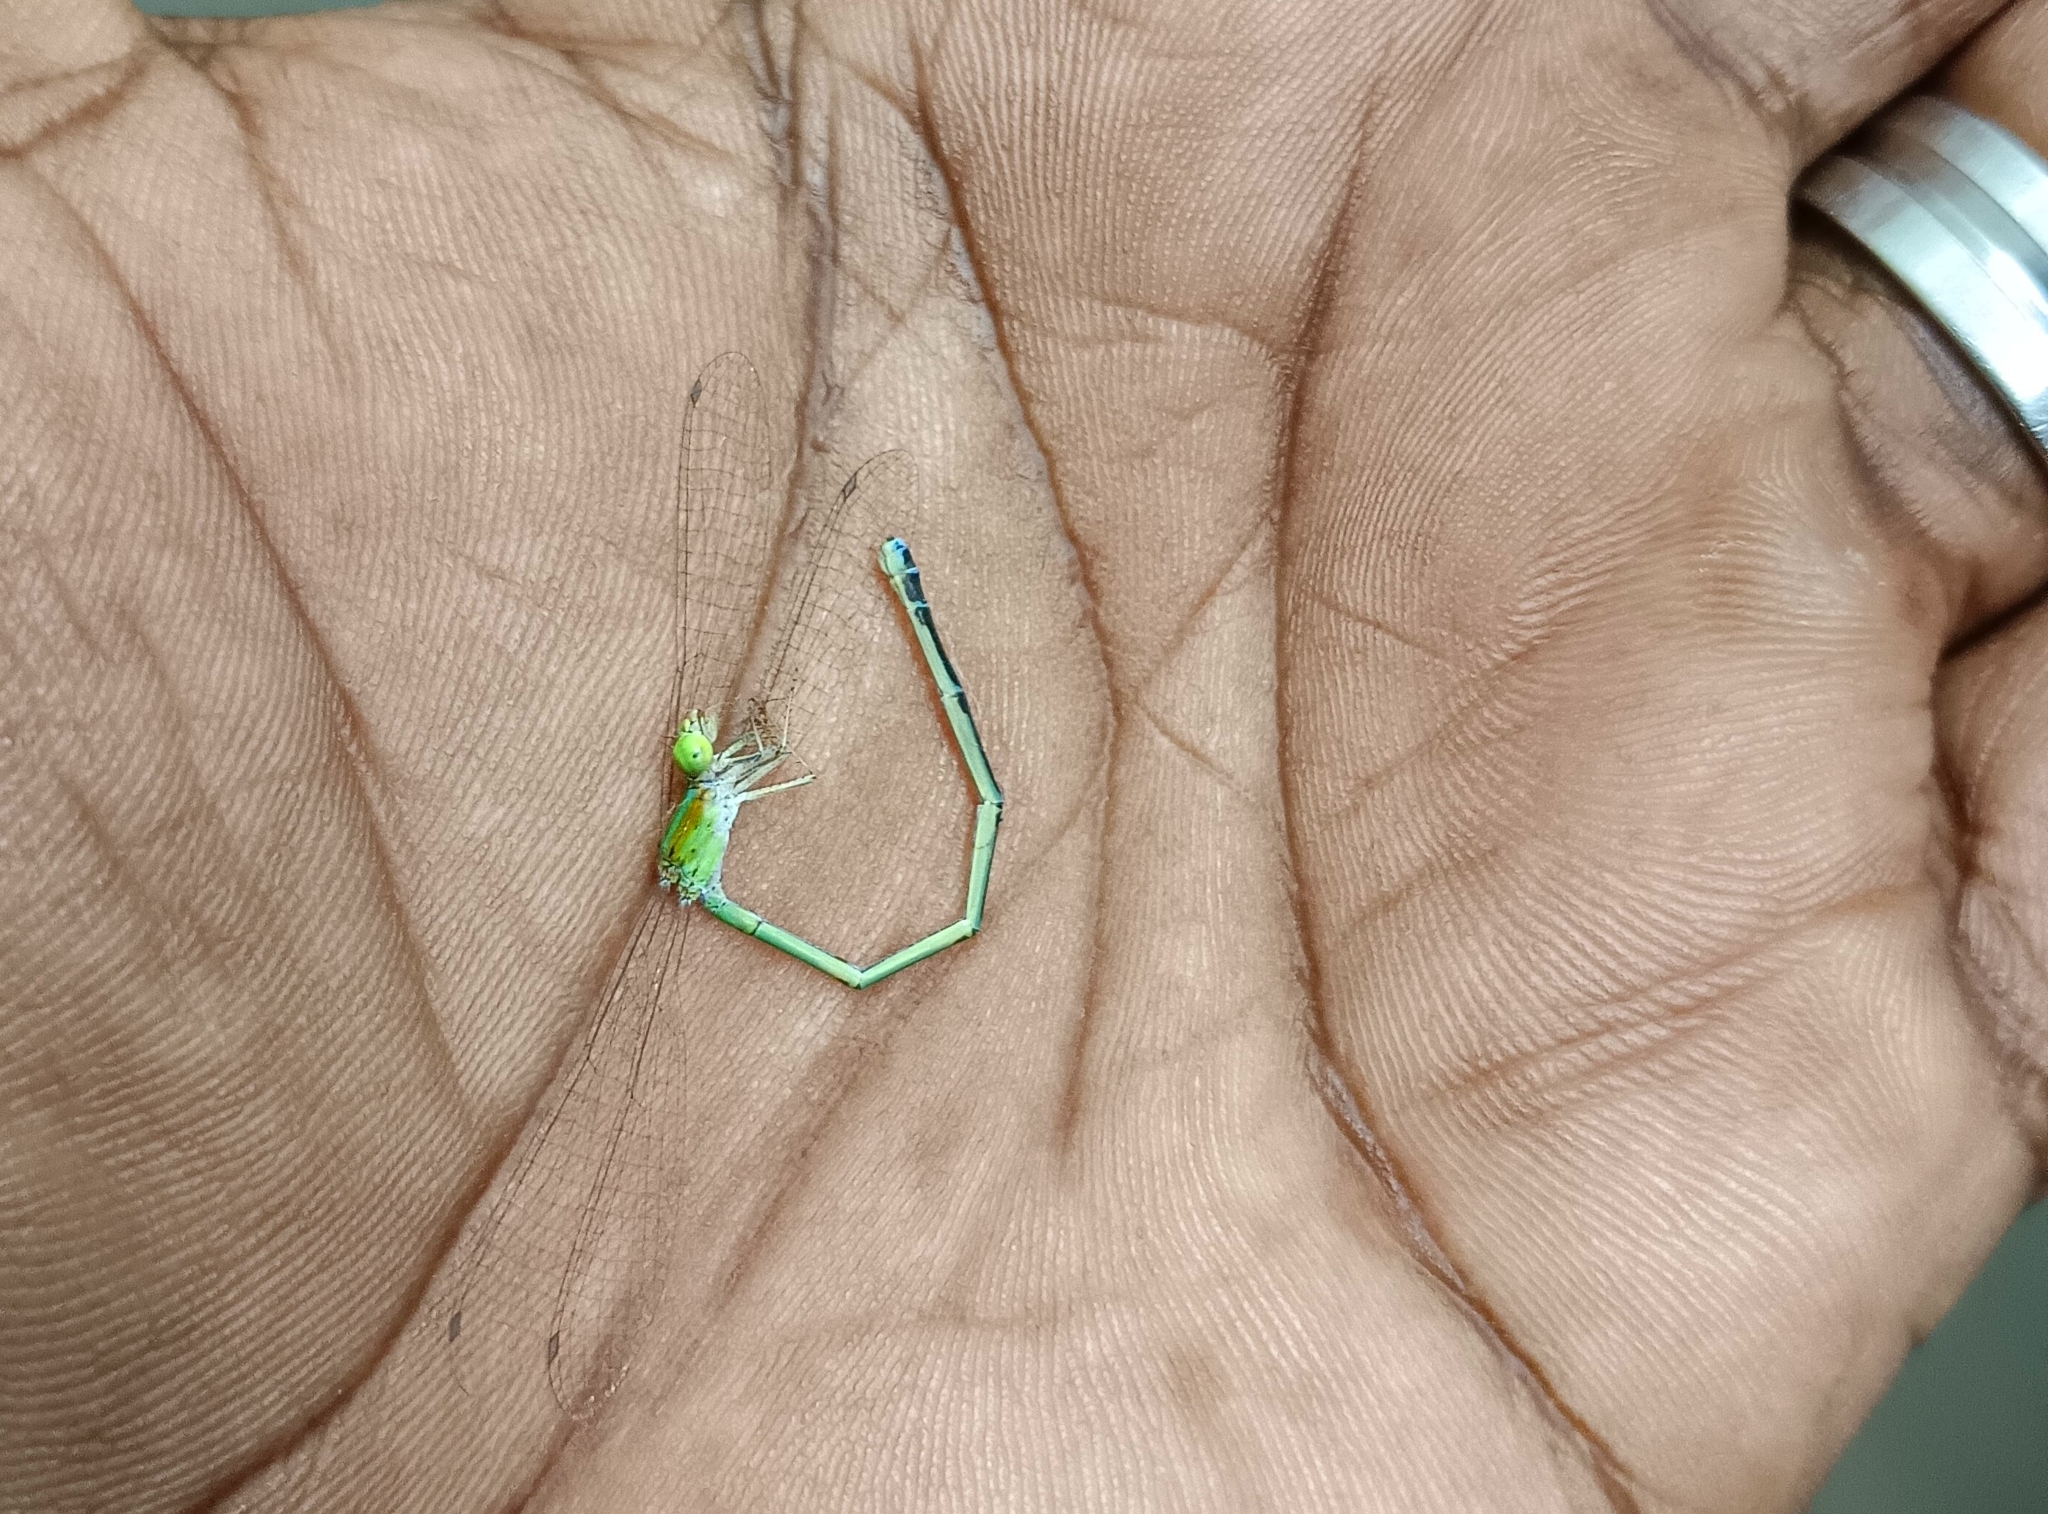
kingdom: Animalia
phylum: Arthropoda
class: Insecta
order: Odonata
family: Coenagrionidae
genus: Agriocnemis
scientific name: Agriocnemis pygmaea
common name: Pygmy wisp
